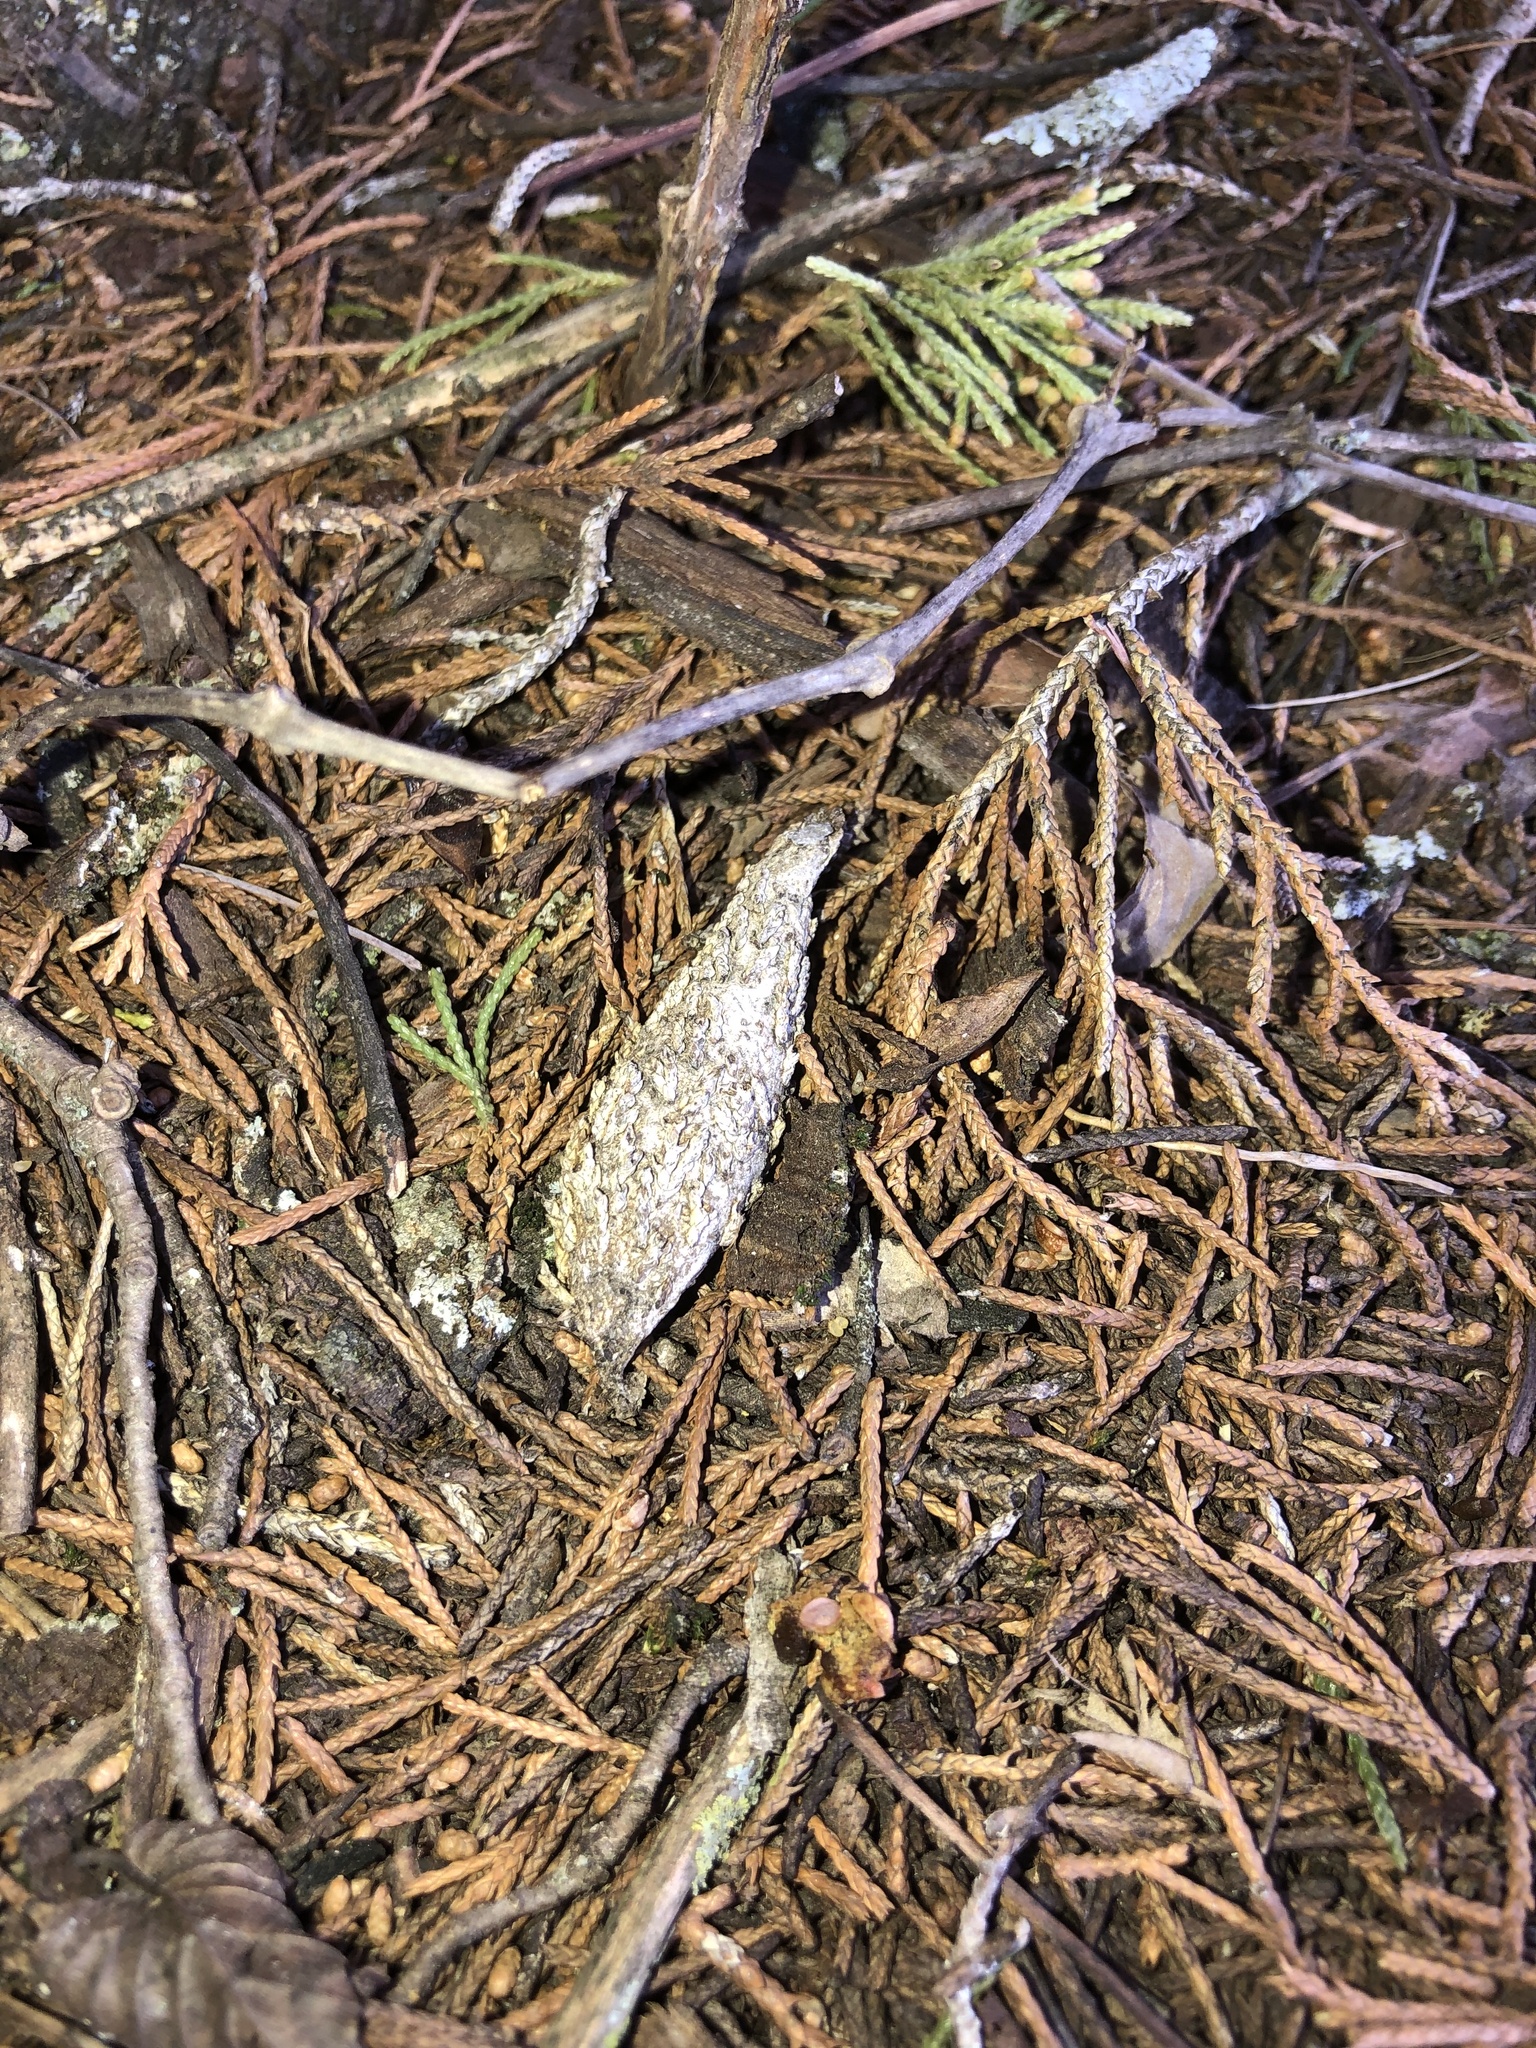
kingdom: Animalia
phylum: Arthropoda
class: Insecta
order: Lepidoptera
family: Psychidae
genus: Thyridopteryx
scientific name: Thyridopteryx ephemeraeformis
